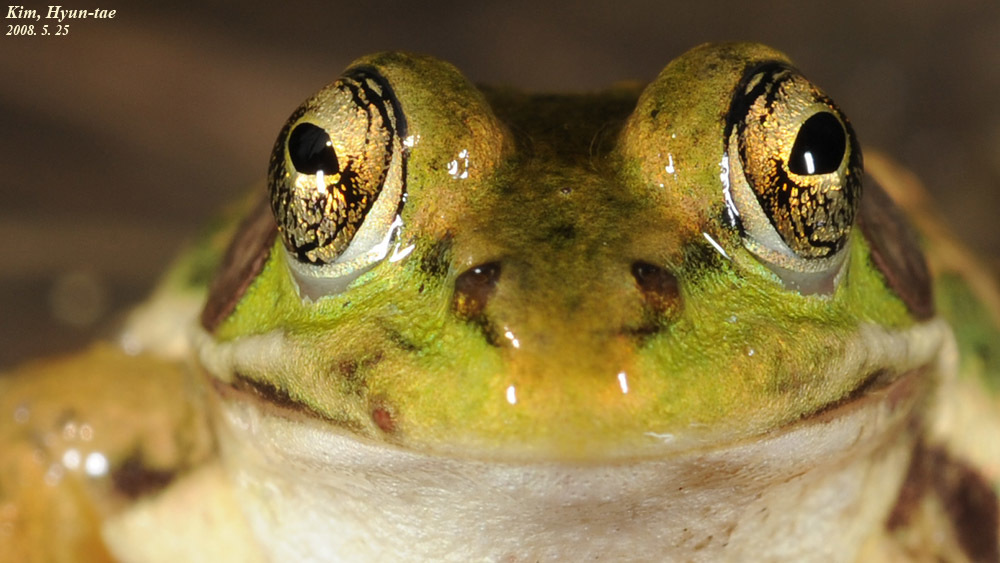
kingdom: Animalia
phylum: Chordata
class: Amphibia
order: Anura
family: Ranidae
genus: Pelophylax
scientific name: Pelophylax chosenicus
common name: Gold-spotted pond frog
